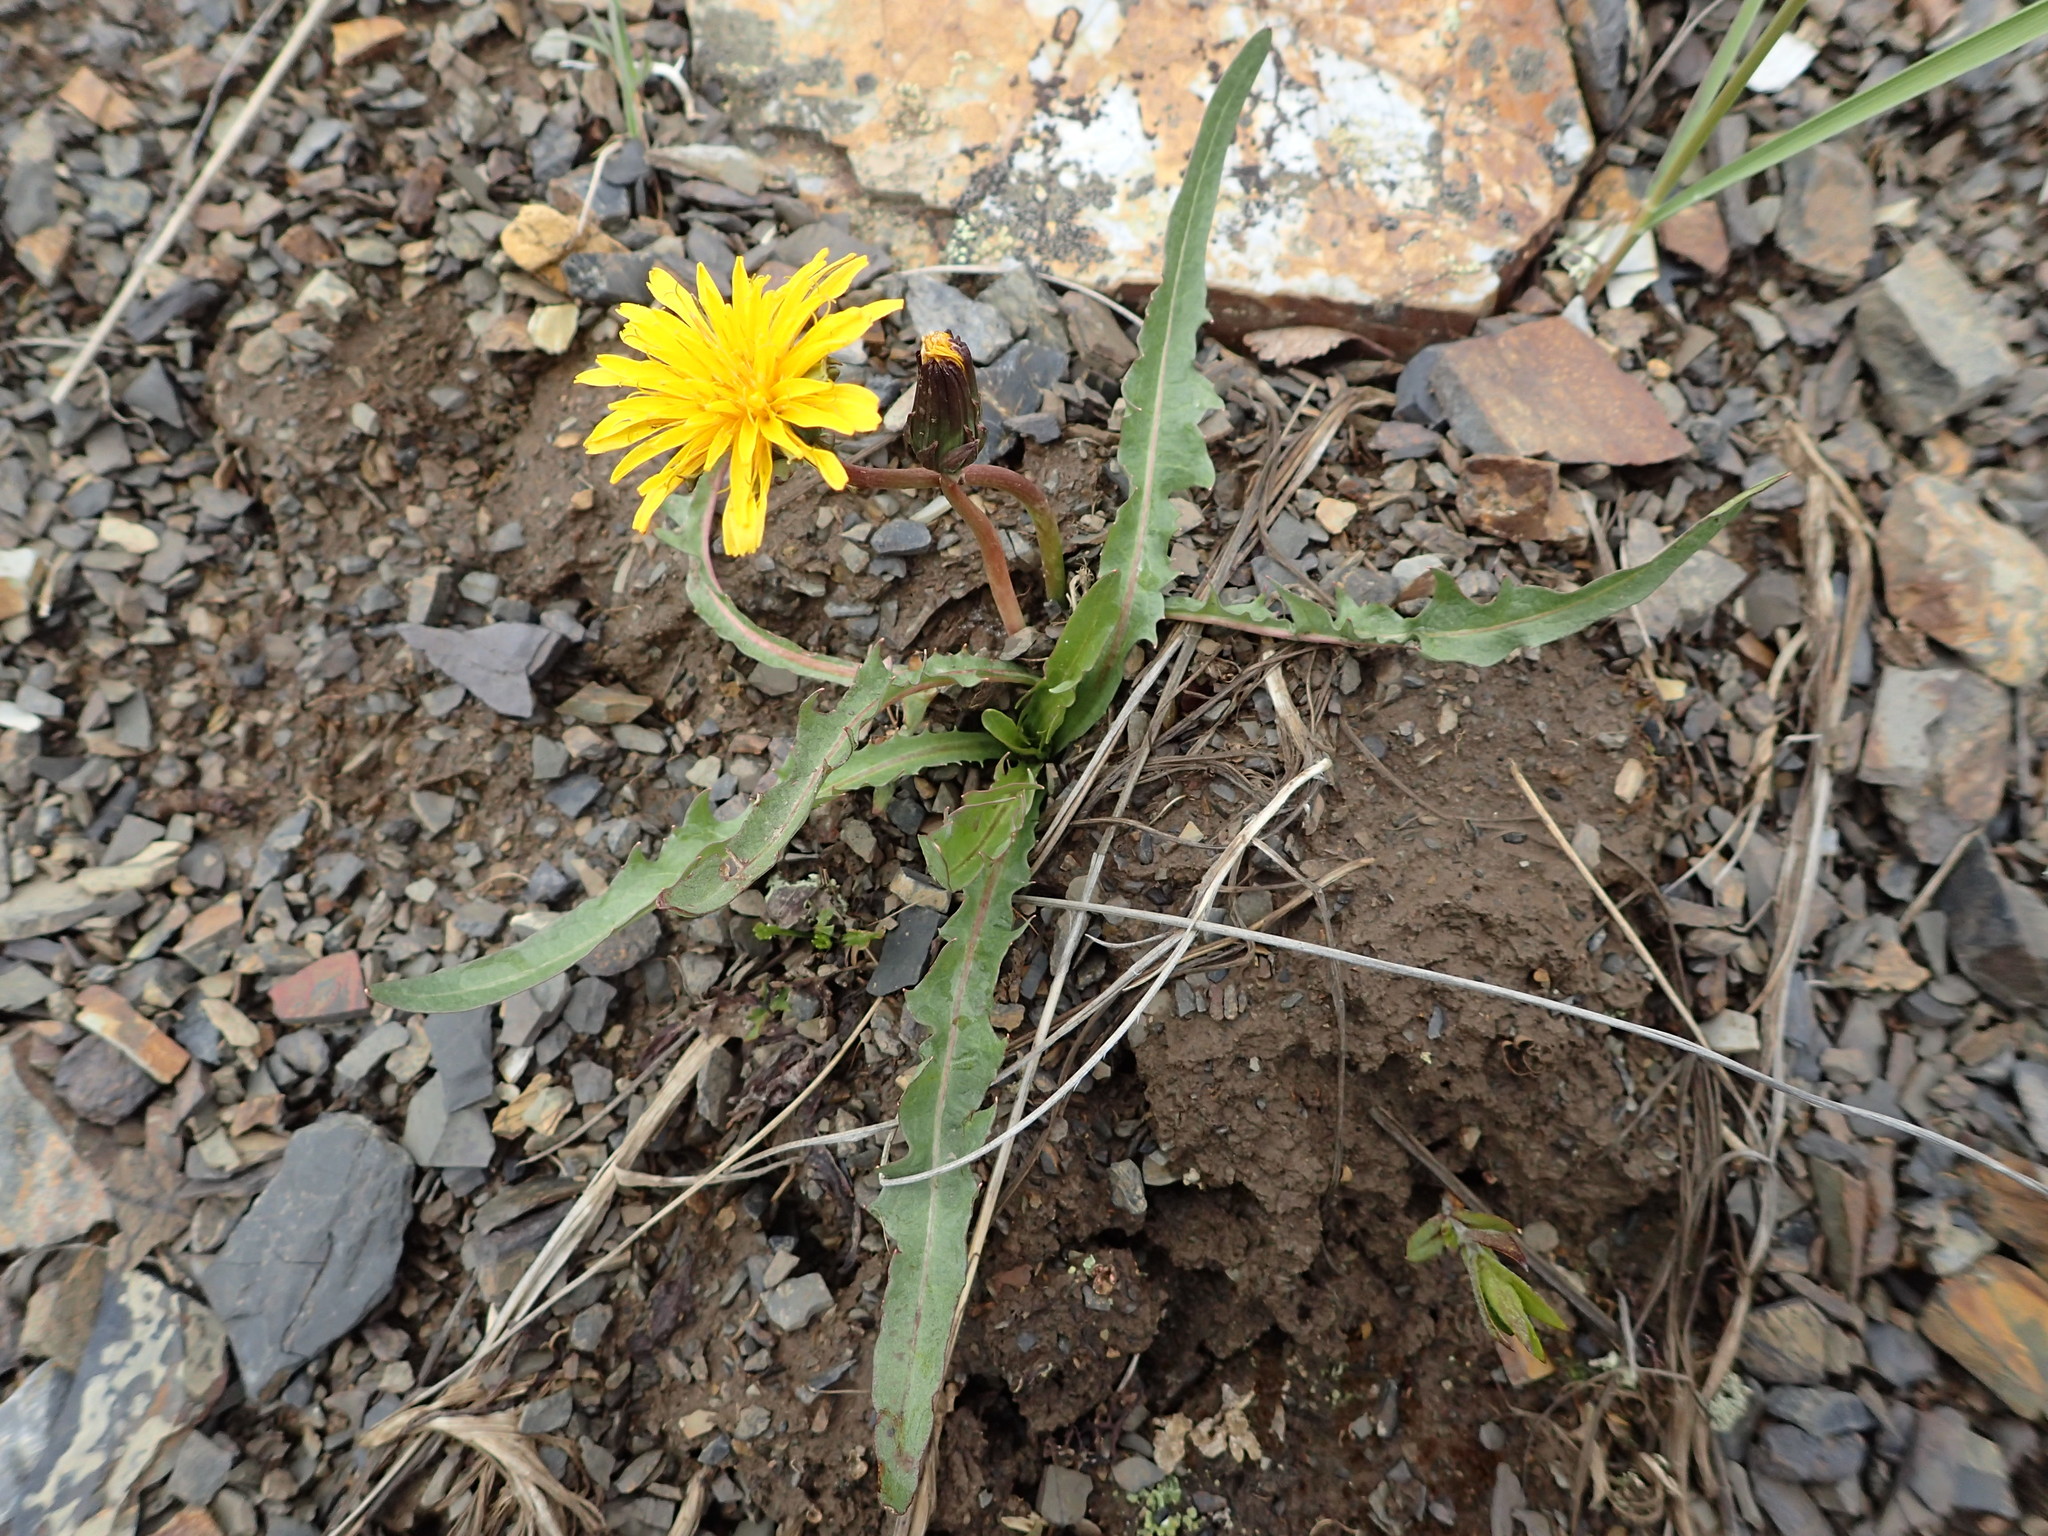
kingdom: Plantae
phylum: Tracheophyta
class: Magnoliopsida
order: Asterales
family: Asteraceae
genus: Taraxacum
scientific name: Taraxacum alaskanum
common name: Alaska dandelion
